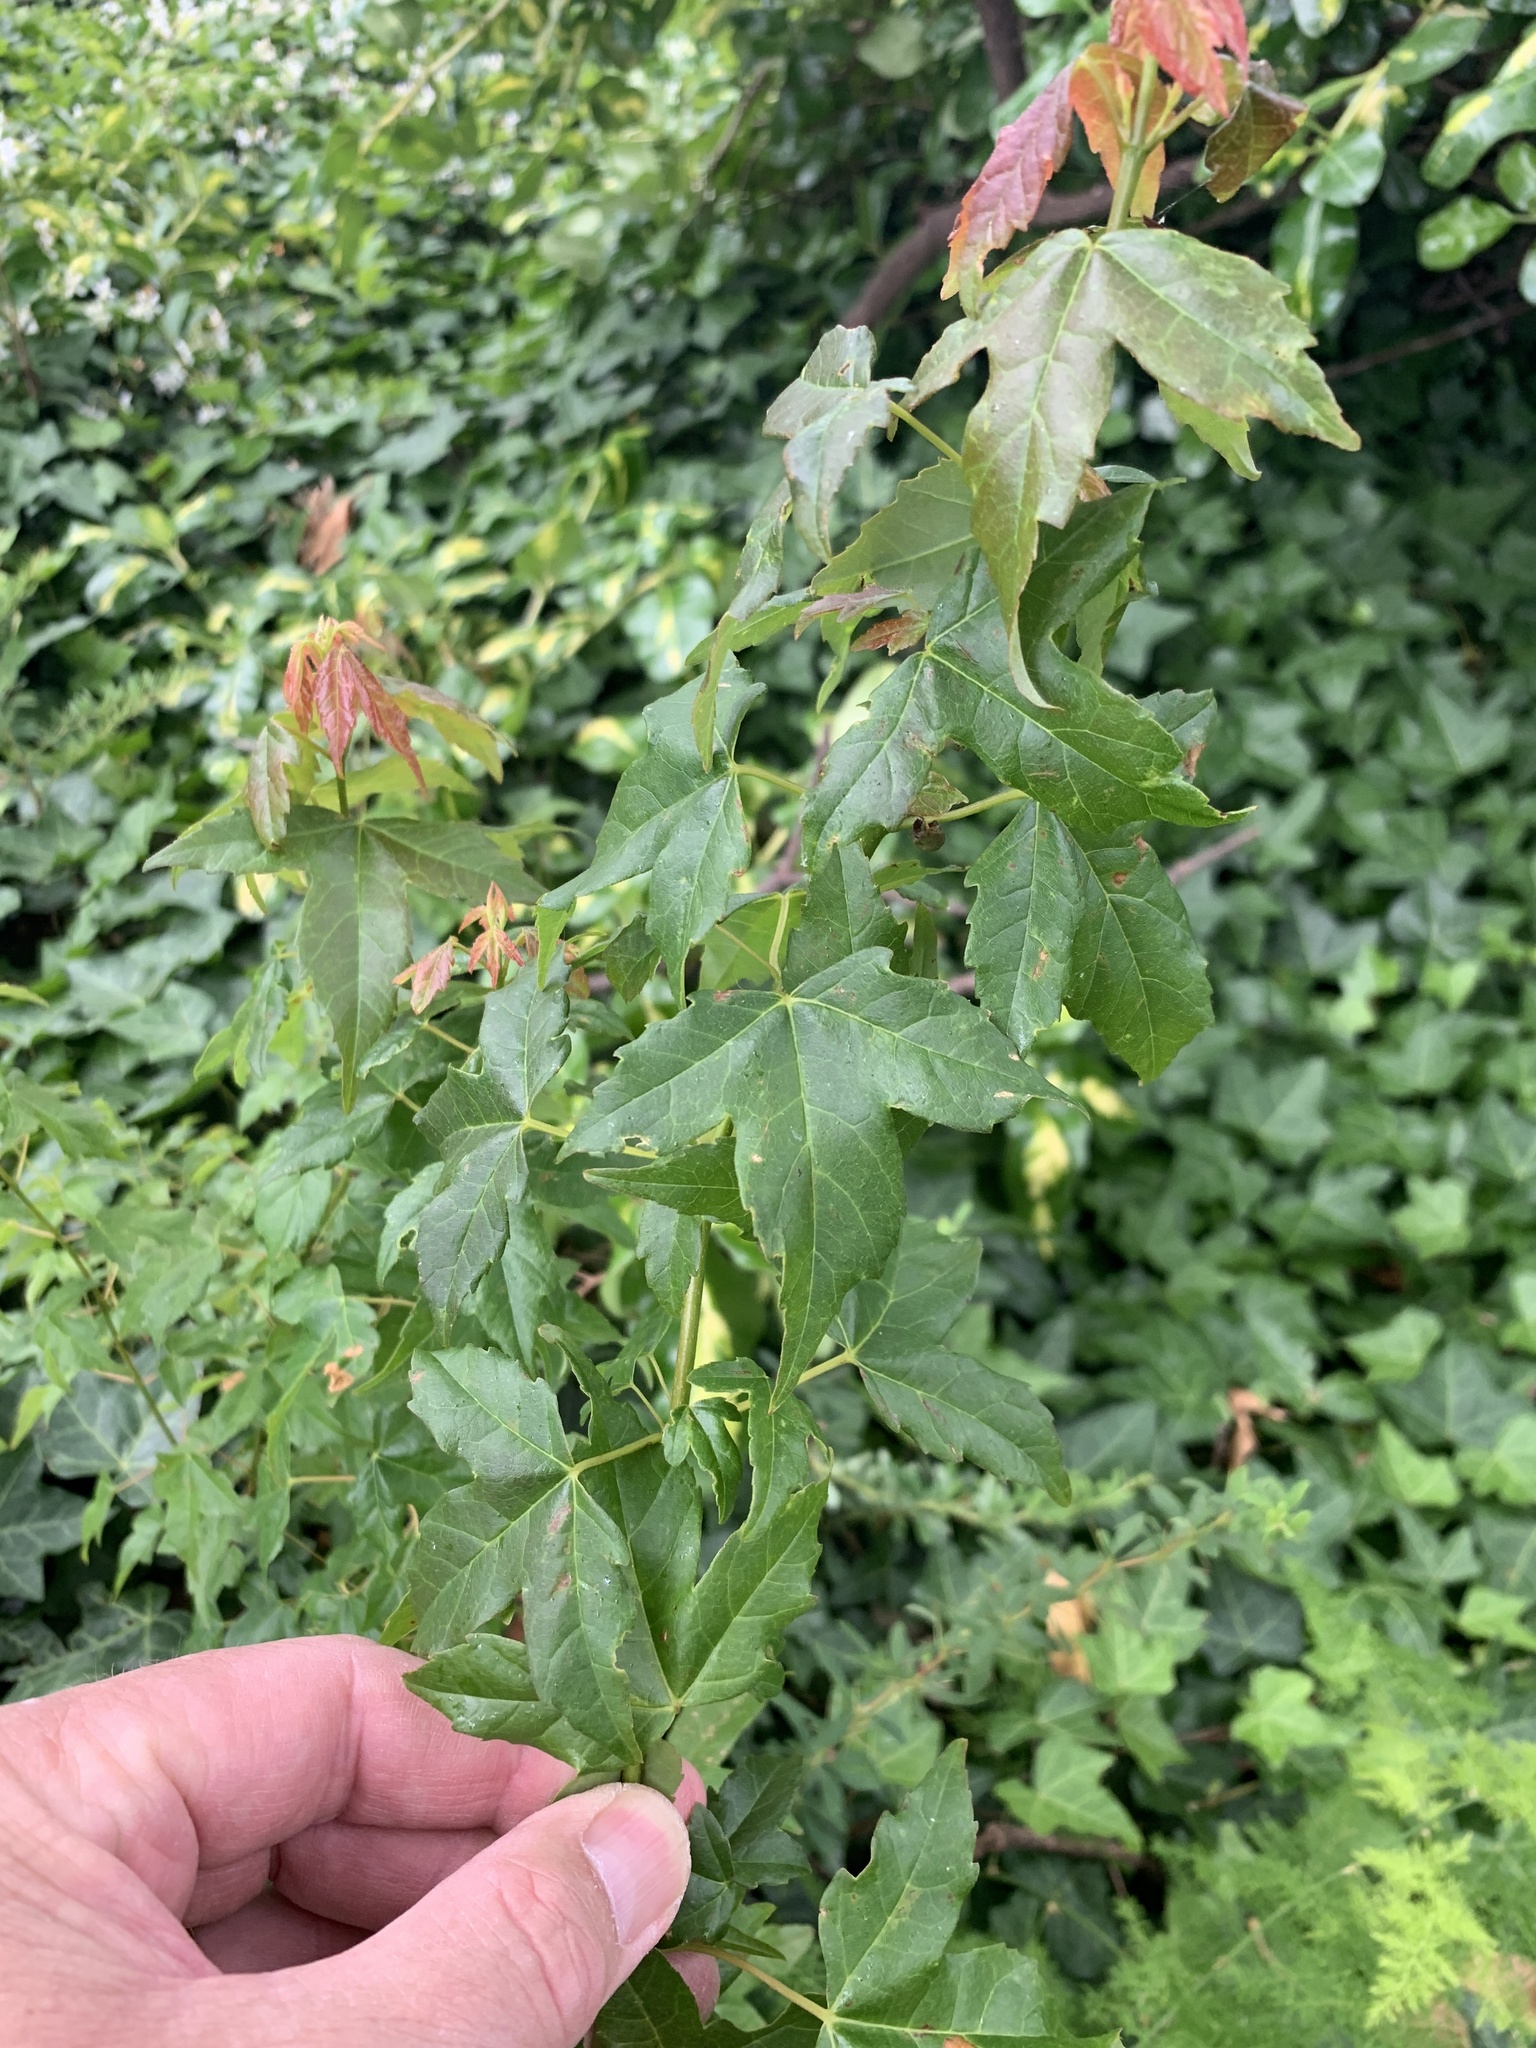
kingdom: Plantae
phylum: Tracheophyta
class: Magnoliopsida
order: Sapindales
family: Sapindaceae
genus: Acer
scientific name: Acer buergerianum
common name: Trident maple
